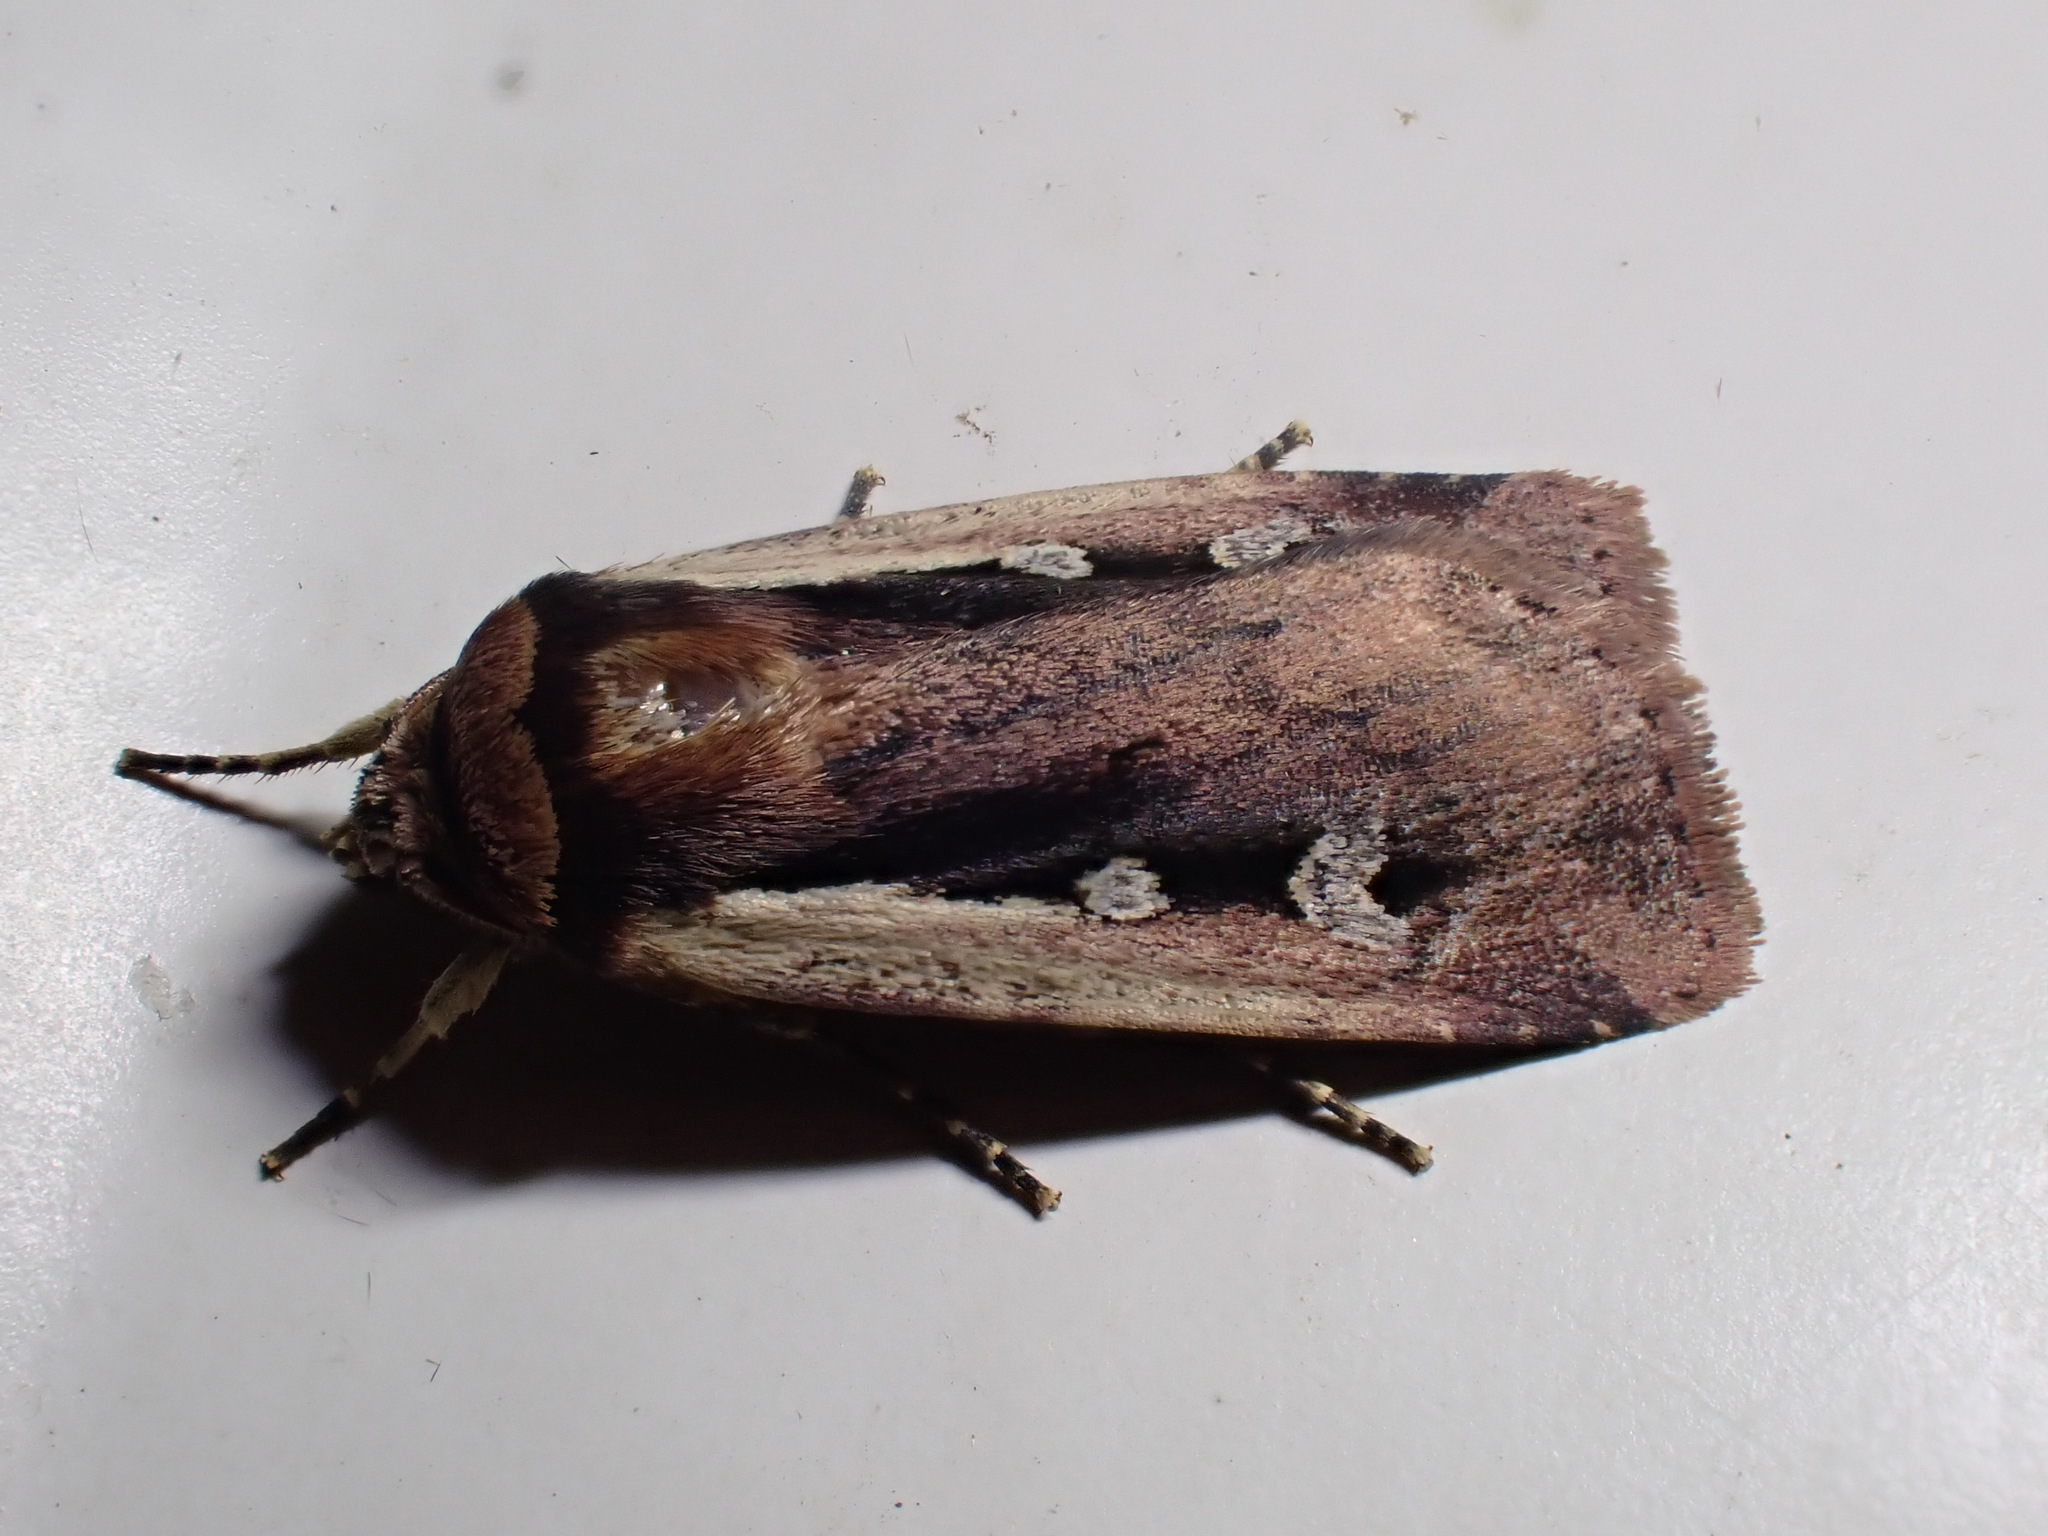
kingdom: Animalia
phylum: Arthropoda
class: Insecta
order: Lepidoptera
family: Noctuidae
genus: Ochropleura
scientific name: Ochropleura plecta
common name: Flame shoulder
